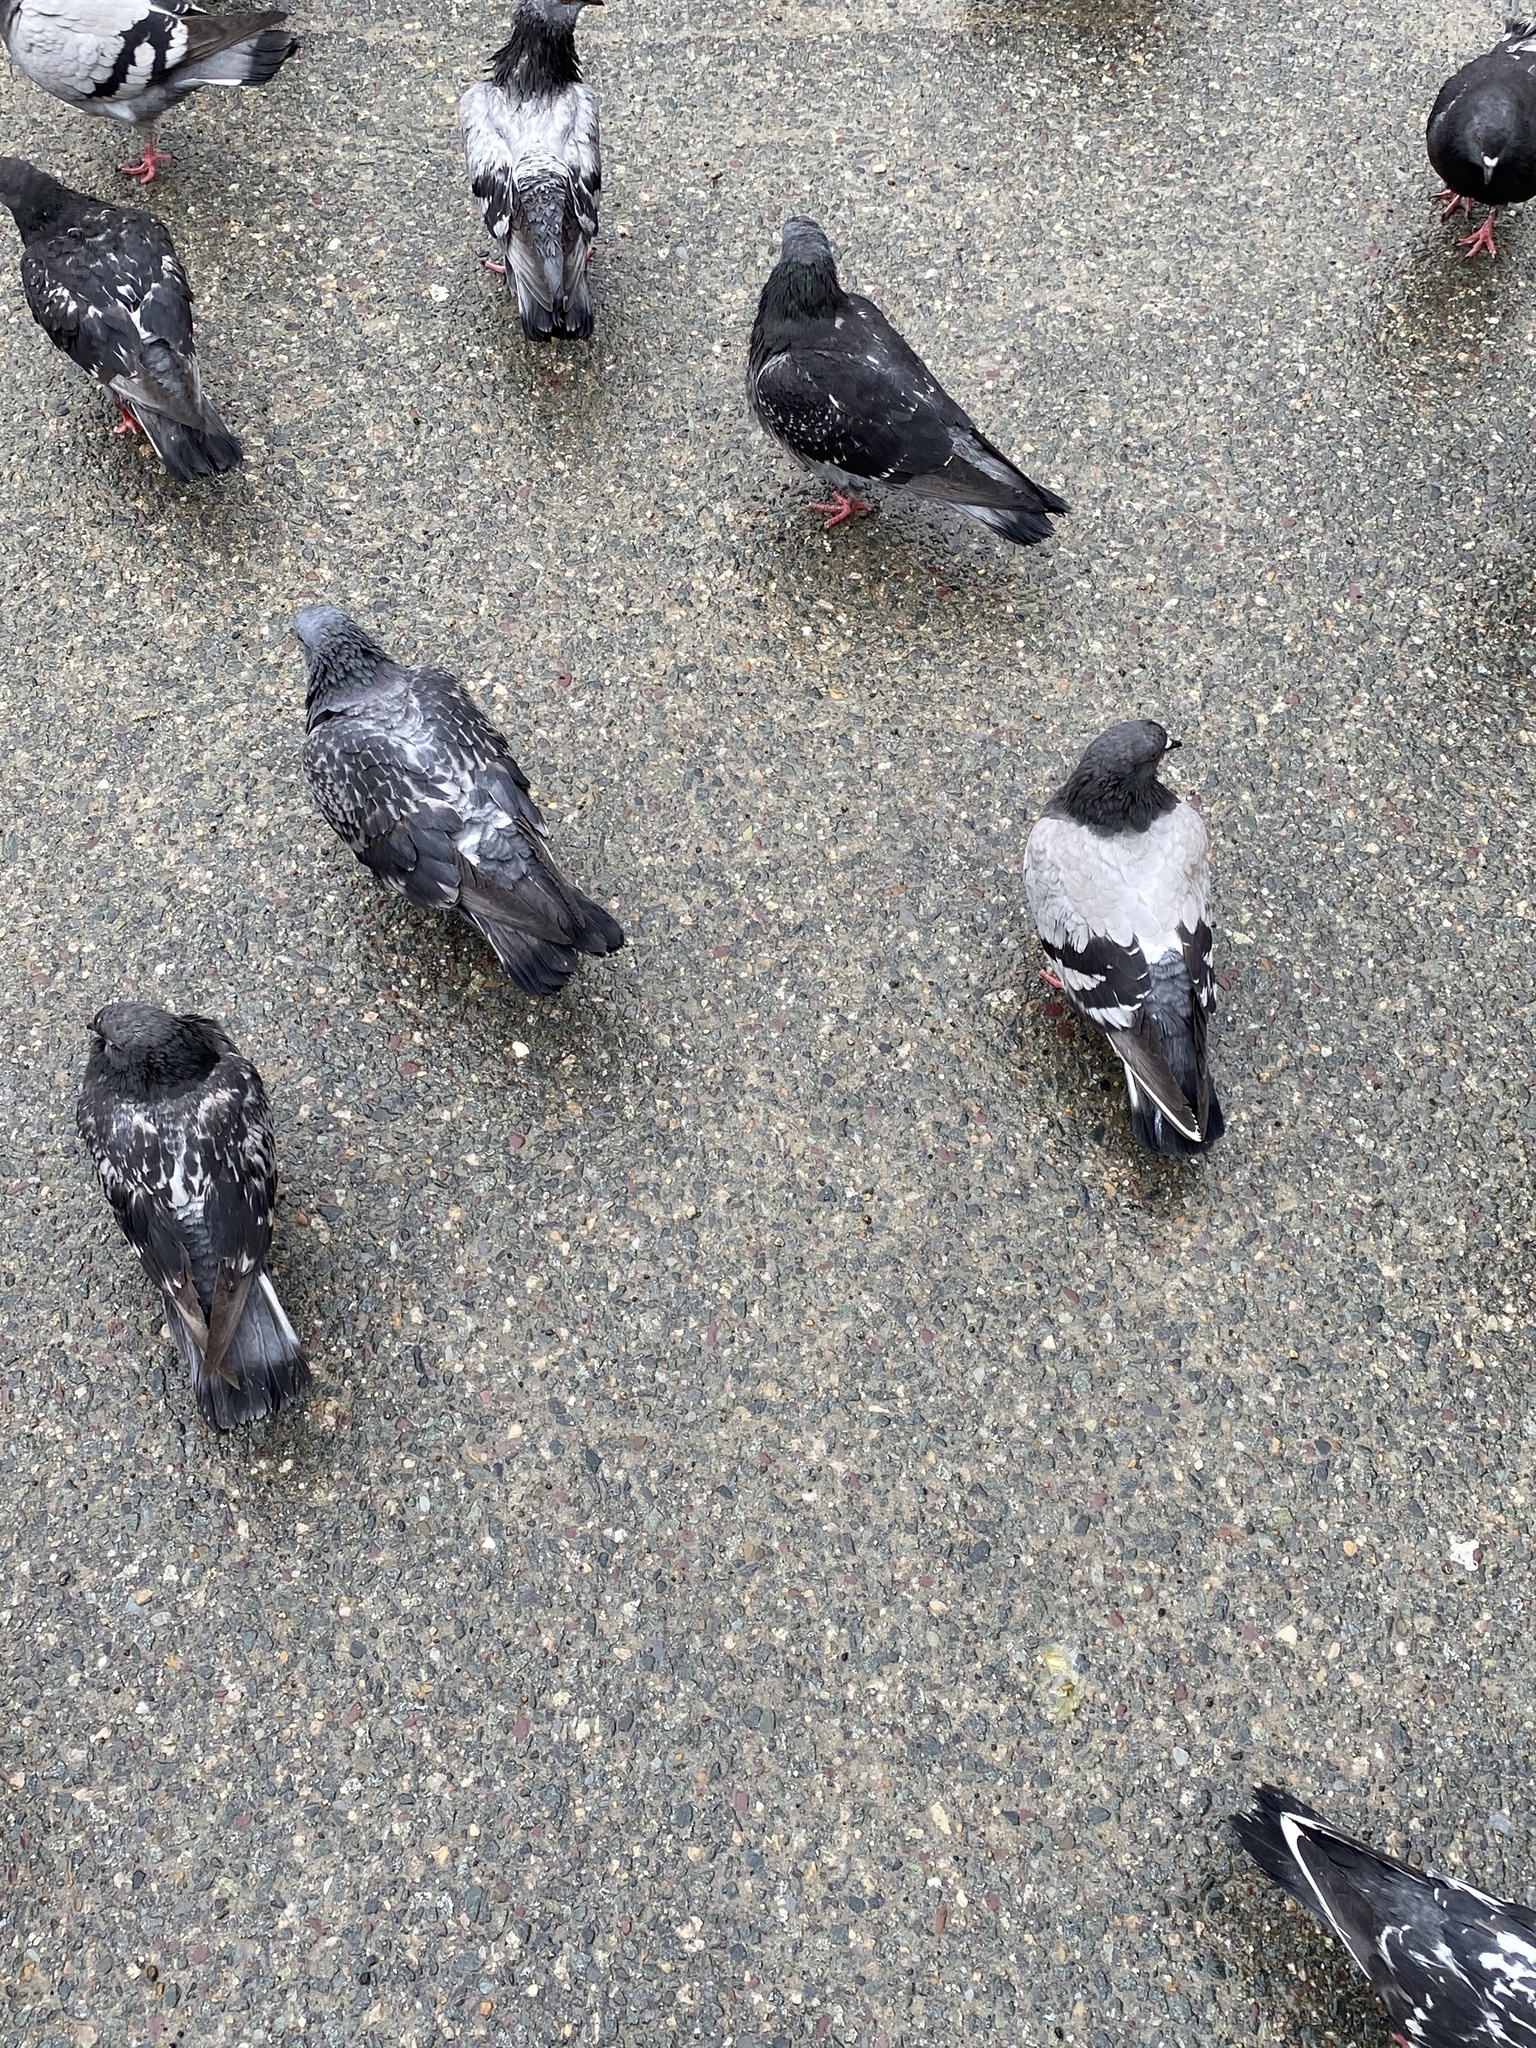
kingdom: Animalia
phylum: Chordata
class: Aves
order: Columbiformes
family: Columbidae
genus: Columba
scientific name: Columba livia
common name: Rock pigeon
